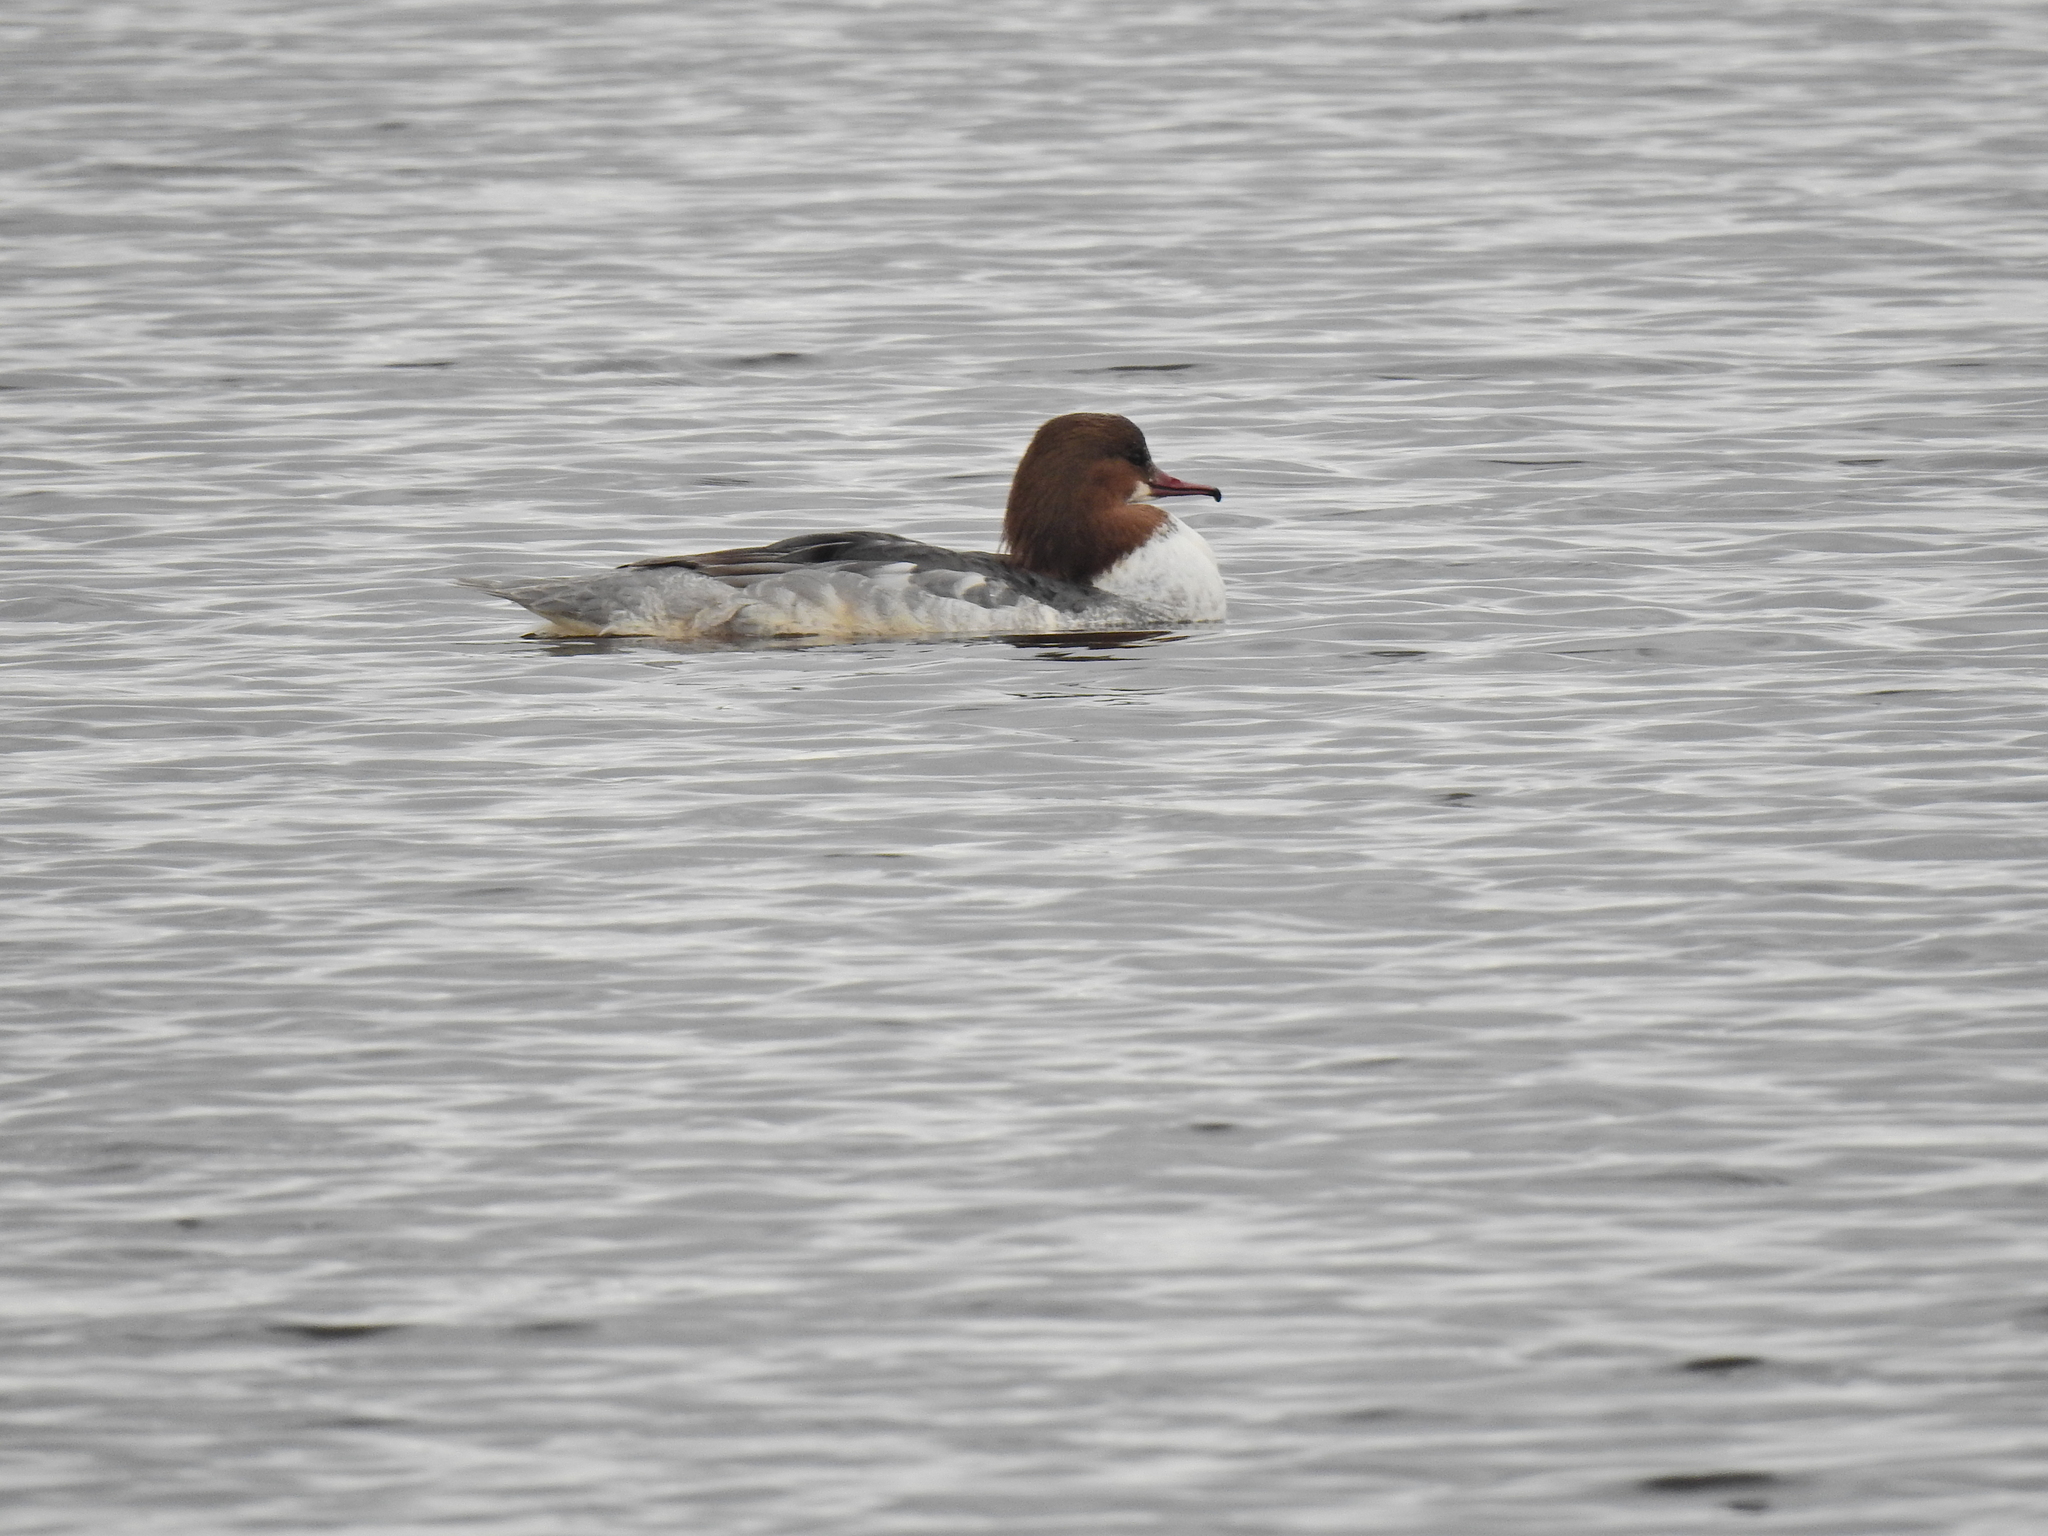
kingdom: Animalia
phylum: Chordata
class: Aves
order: Anseriformes
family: Anatidae
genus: Mergus
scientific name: Mergus merganser
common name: Common merganser
